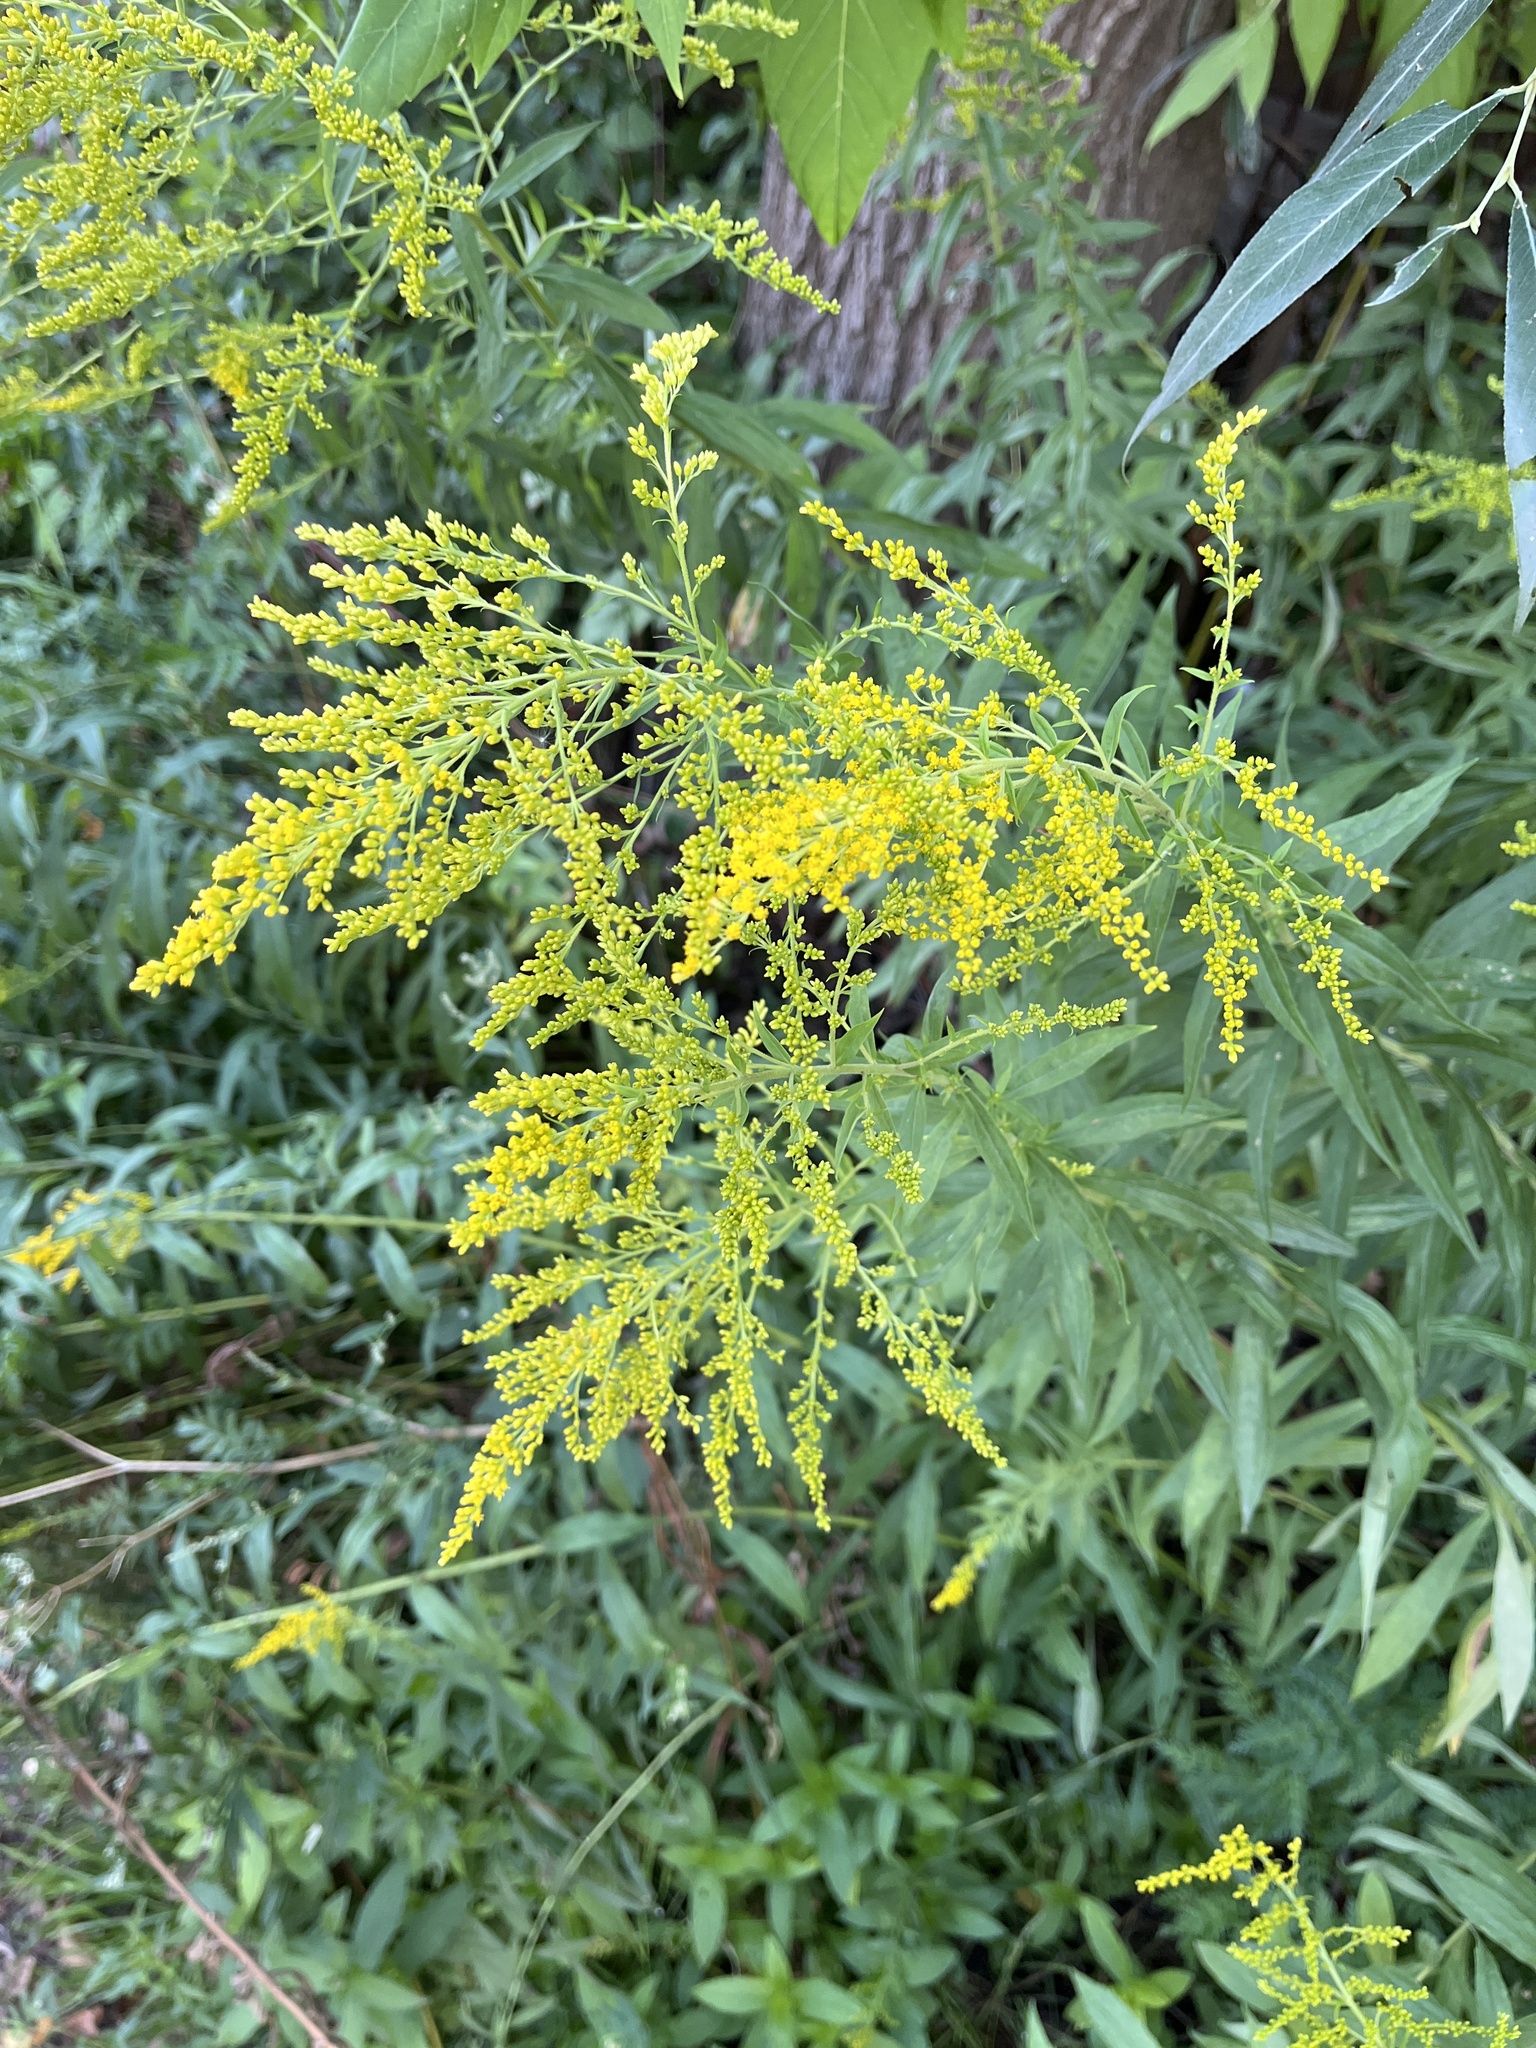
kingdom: Plantae
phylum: Tracheophyta
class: Magnoliopsida
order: Asterales
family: Asteraceae
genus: Solidago
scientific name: Solidago canadensis
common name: Canada goldenrod
